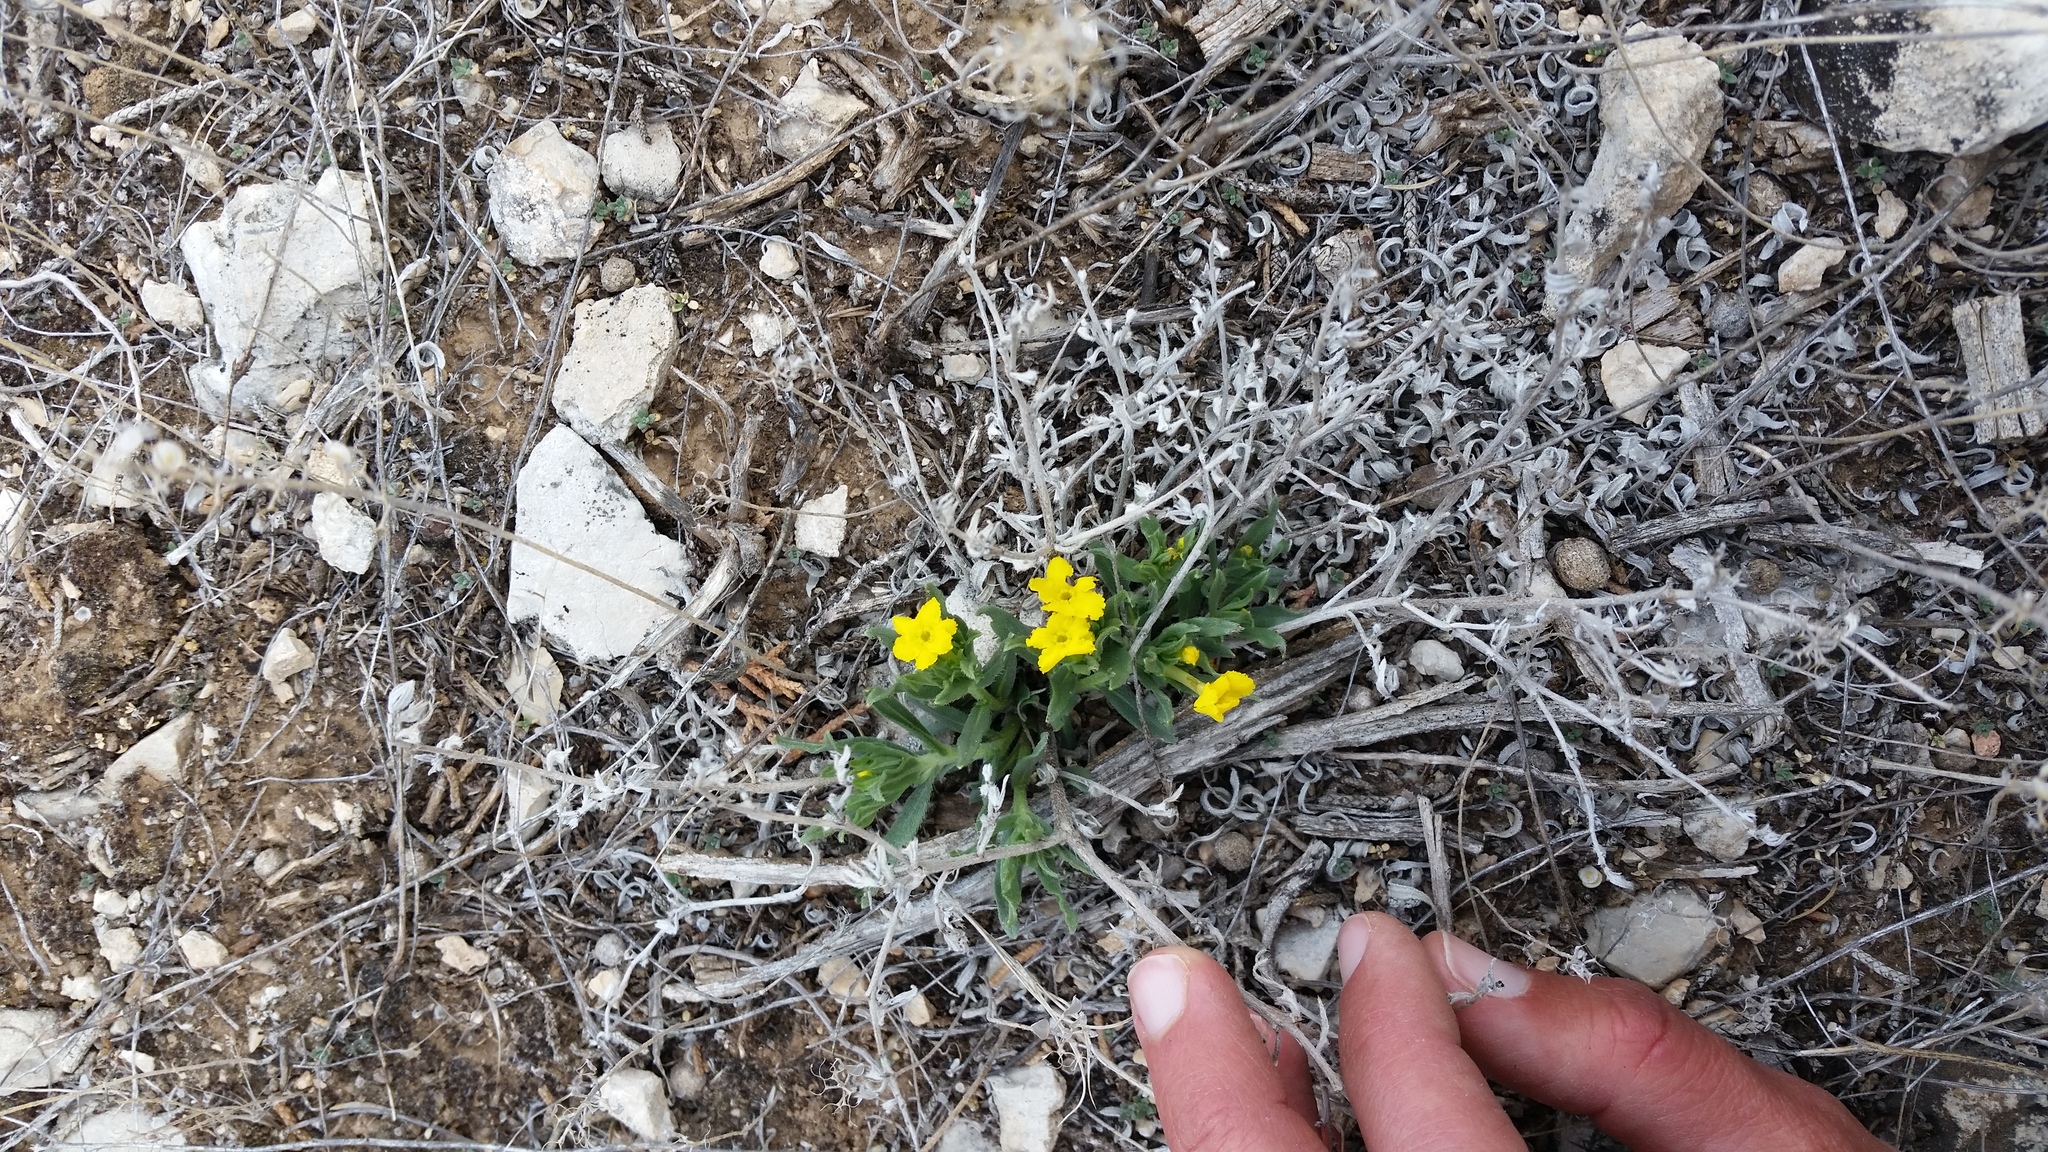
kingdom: Plantae
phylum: Tracheophyta
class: Magnoliopsida
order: Boraginales
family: Boraginaceae
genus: Lithospermum
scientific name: Lithospermum incisum
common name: Fringed gromwell
